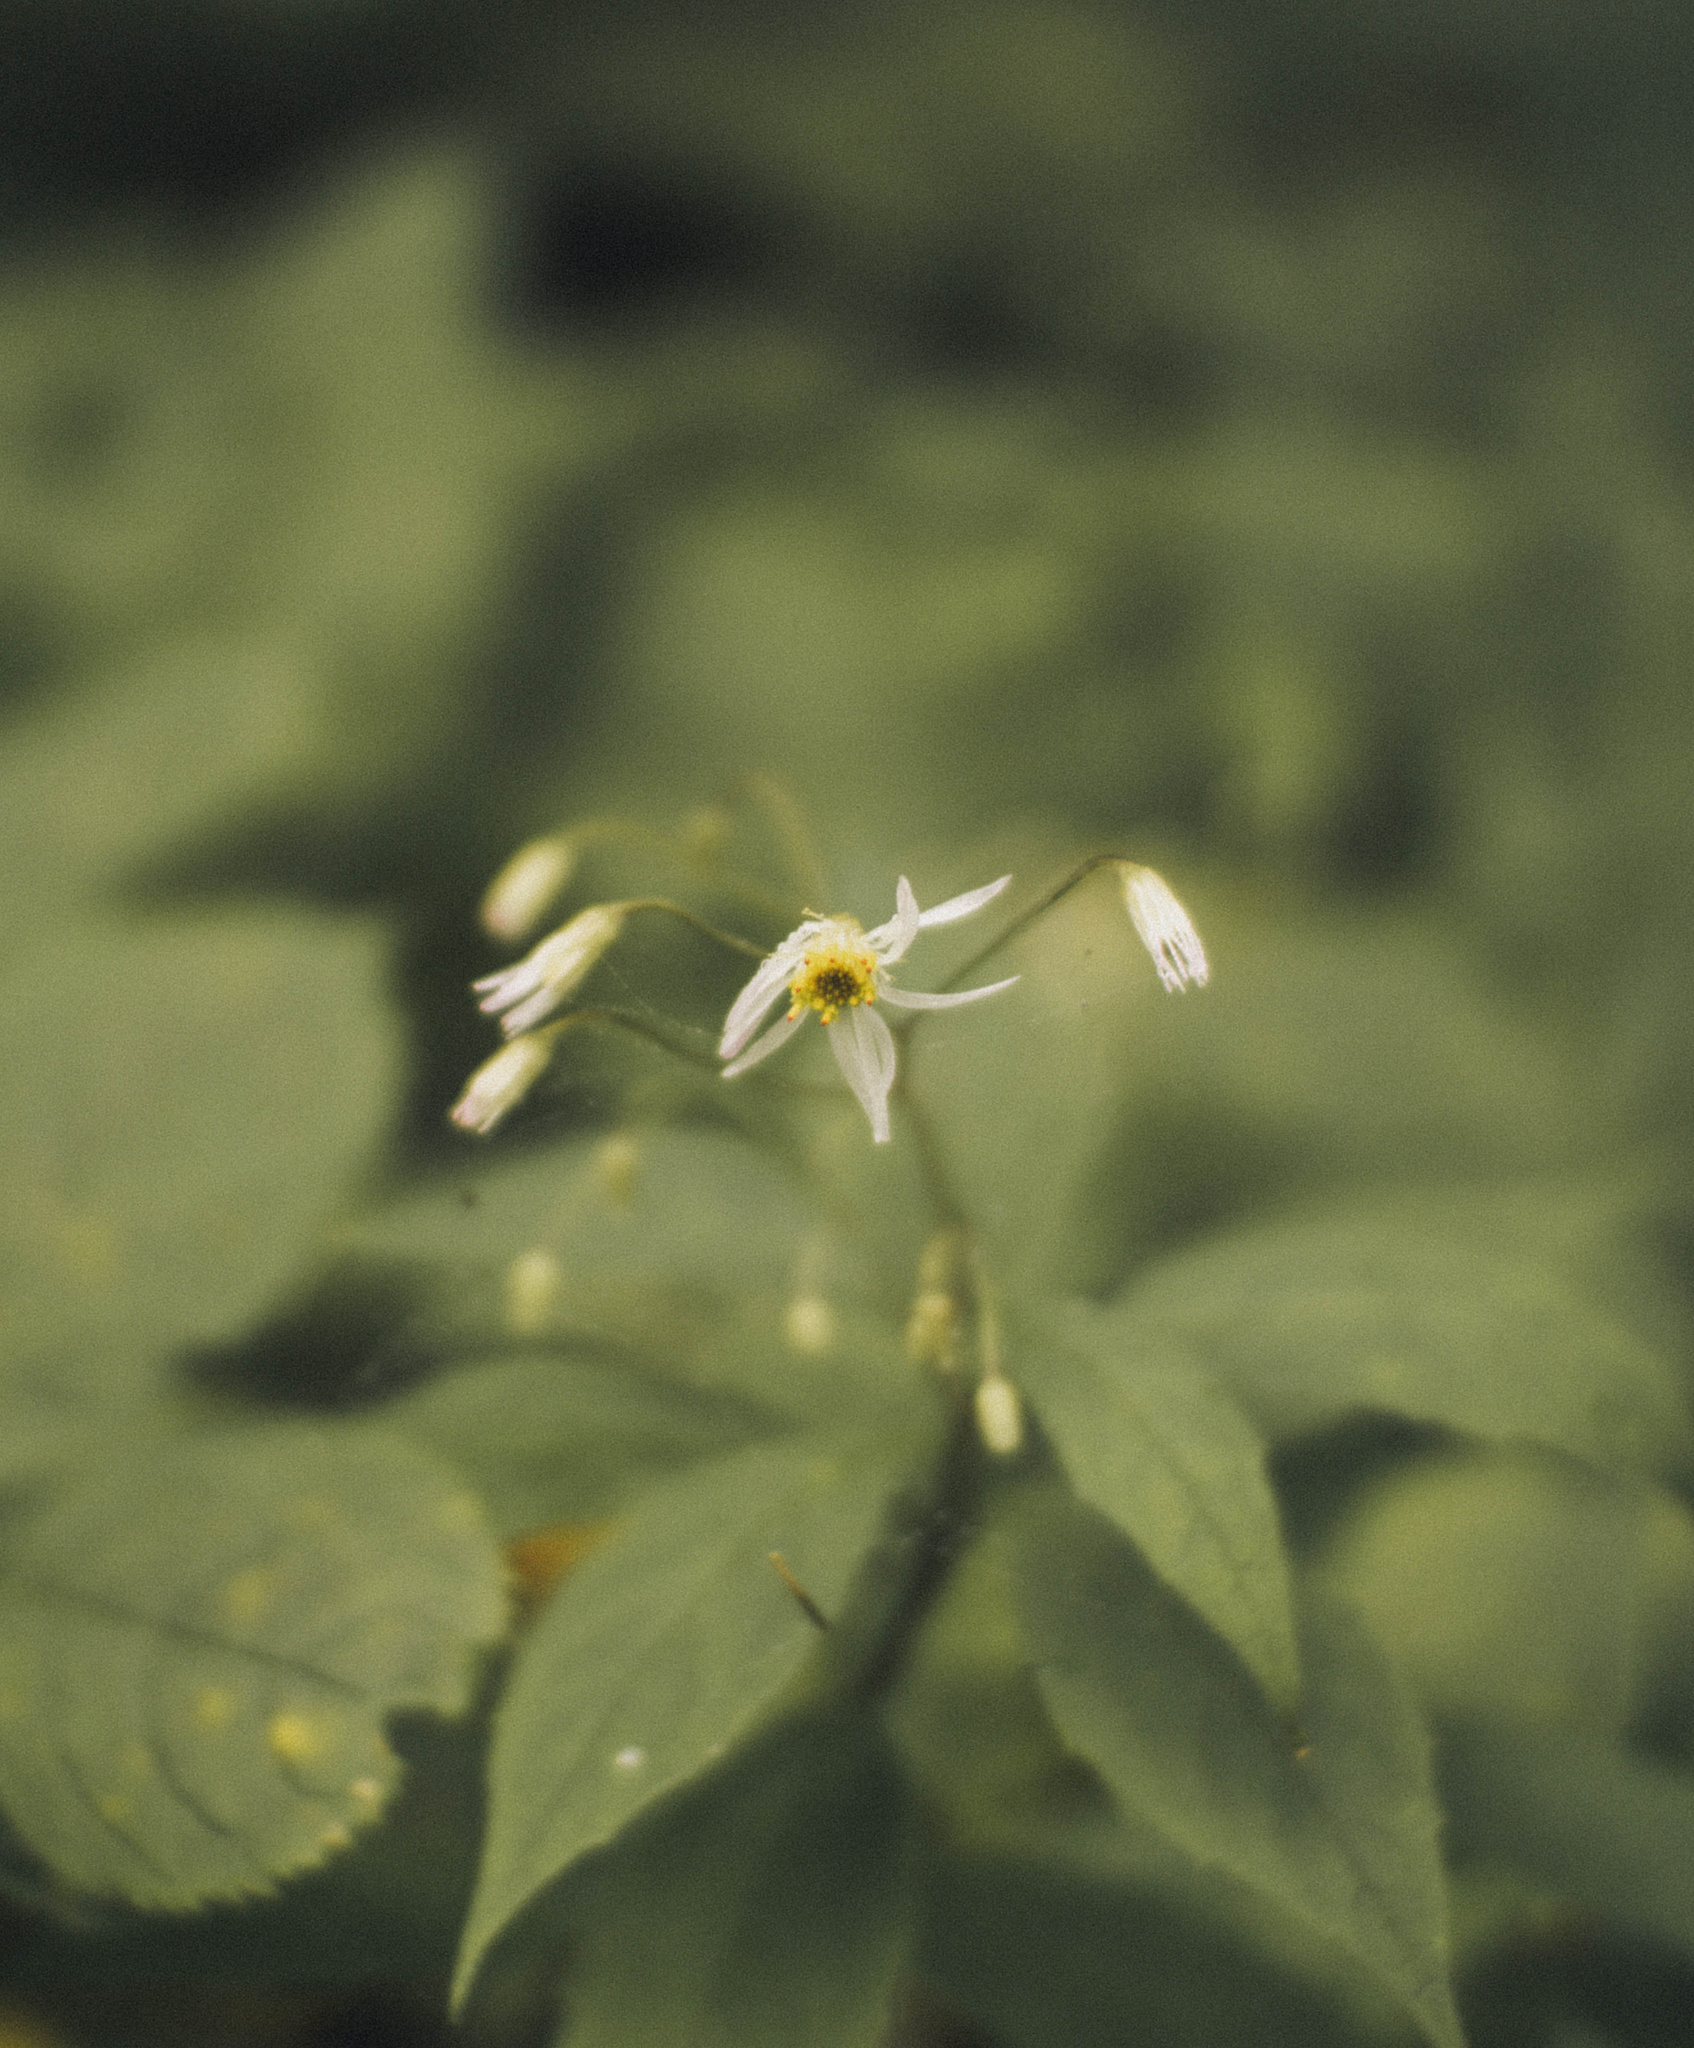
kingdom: Plantae
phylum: Tracheophyta
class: Magnoliopsida
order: Asterales
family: Asteraceae
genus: Oclemena
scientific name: Oclemena acuminata
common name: Mountain aster
